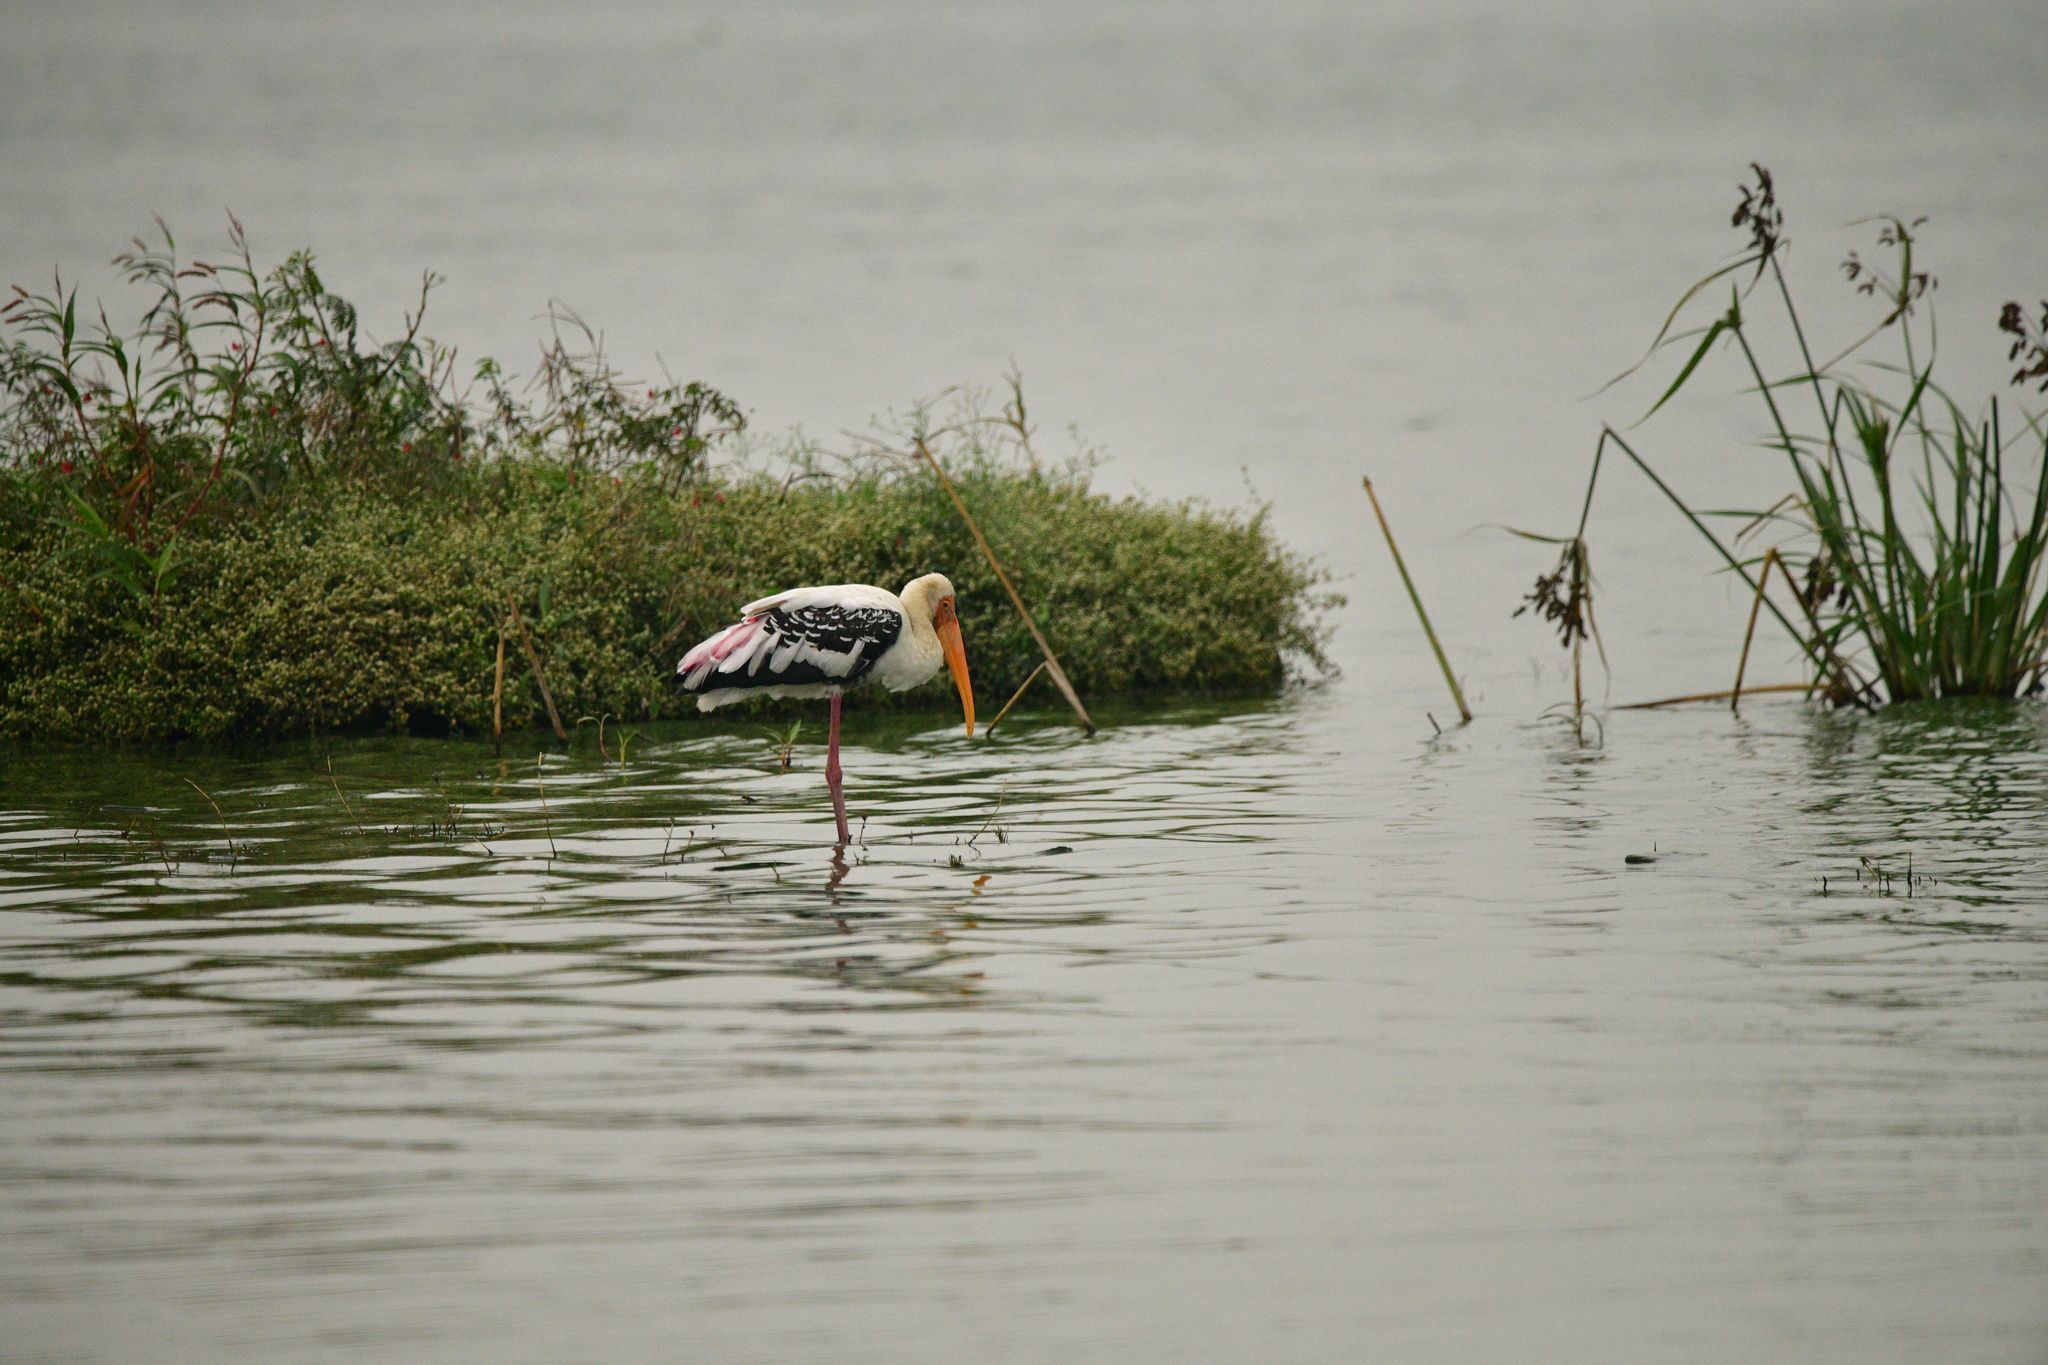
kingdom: Animalia
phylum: Chordata
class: Aves
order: Ciconiiformes
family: Ciconiidae
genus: Mycteria
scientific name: Mycteria leucocephala
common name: Painted stork
